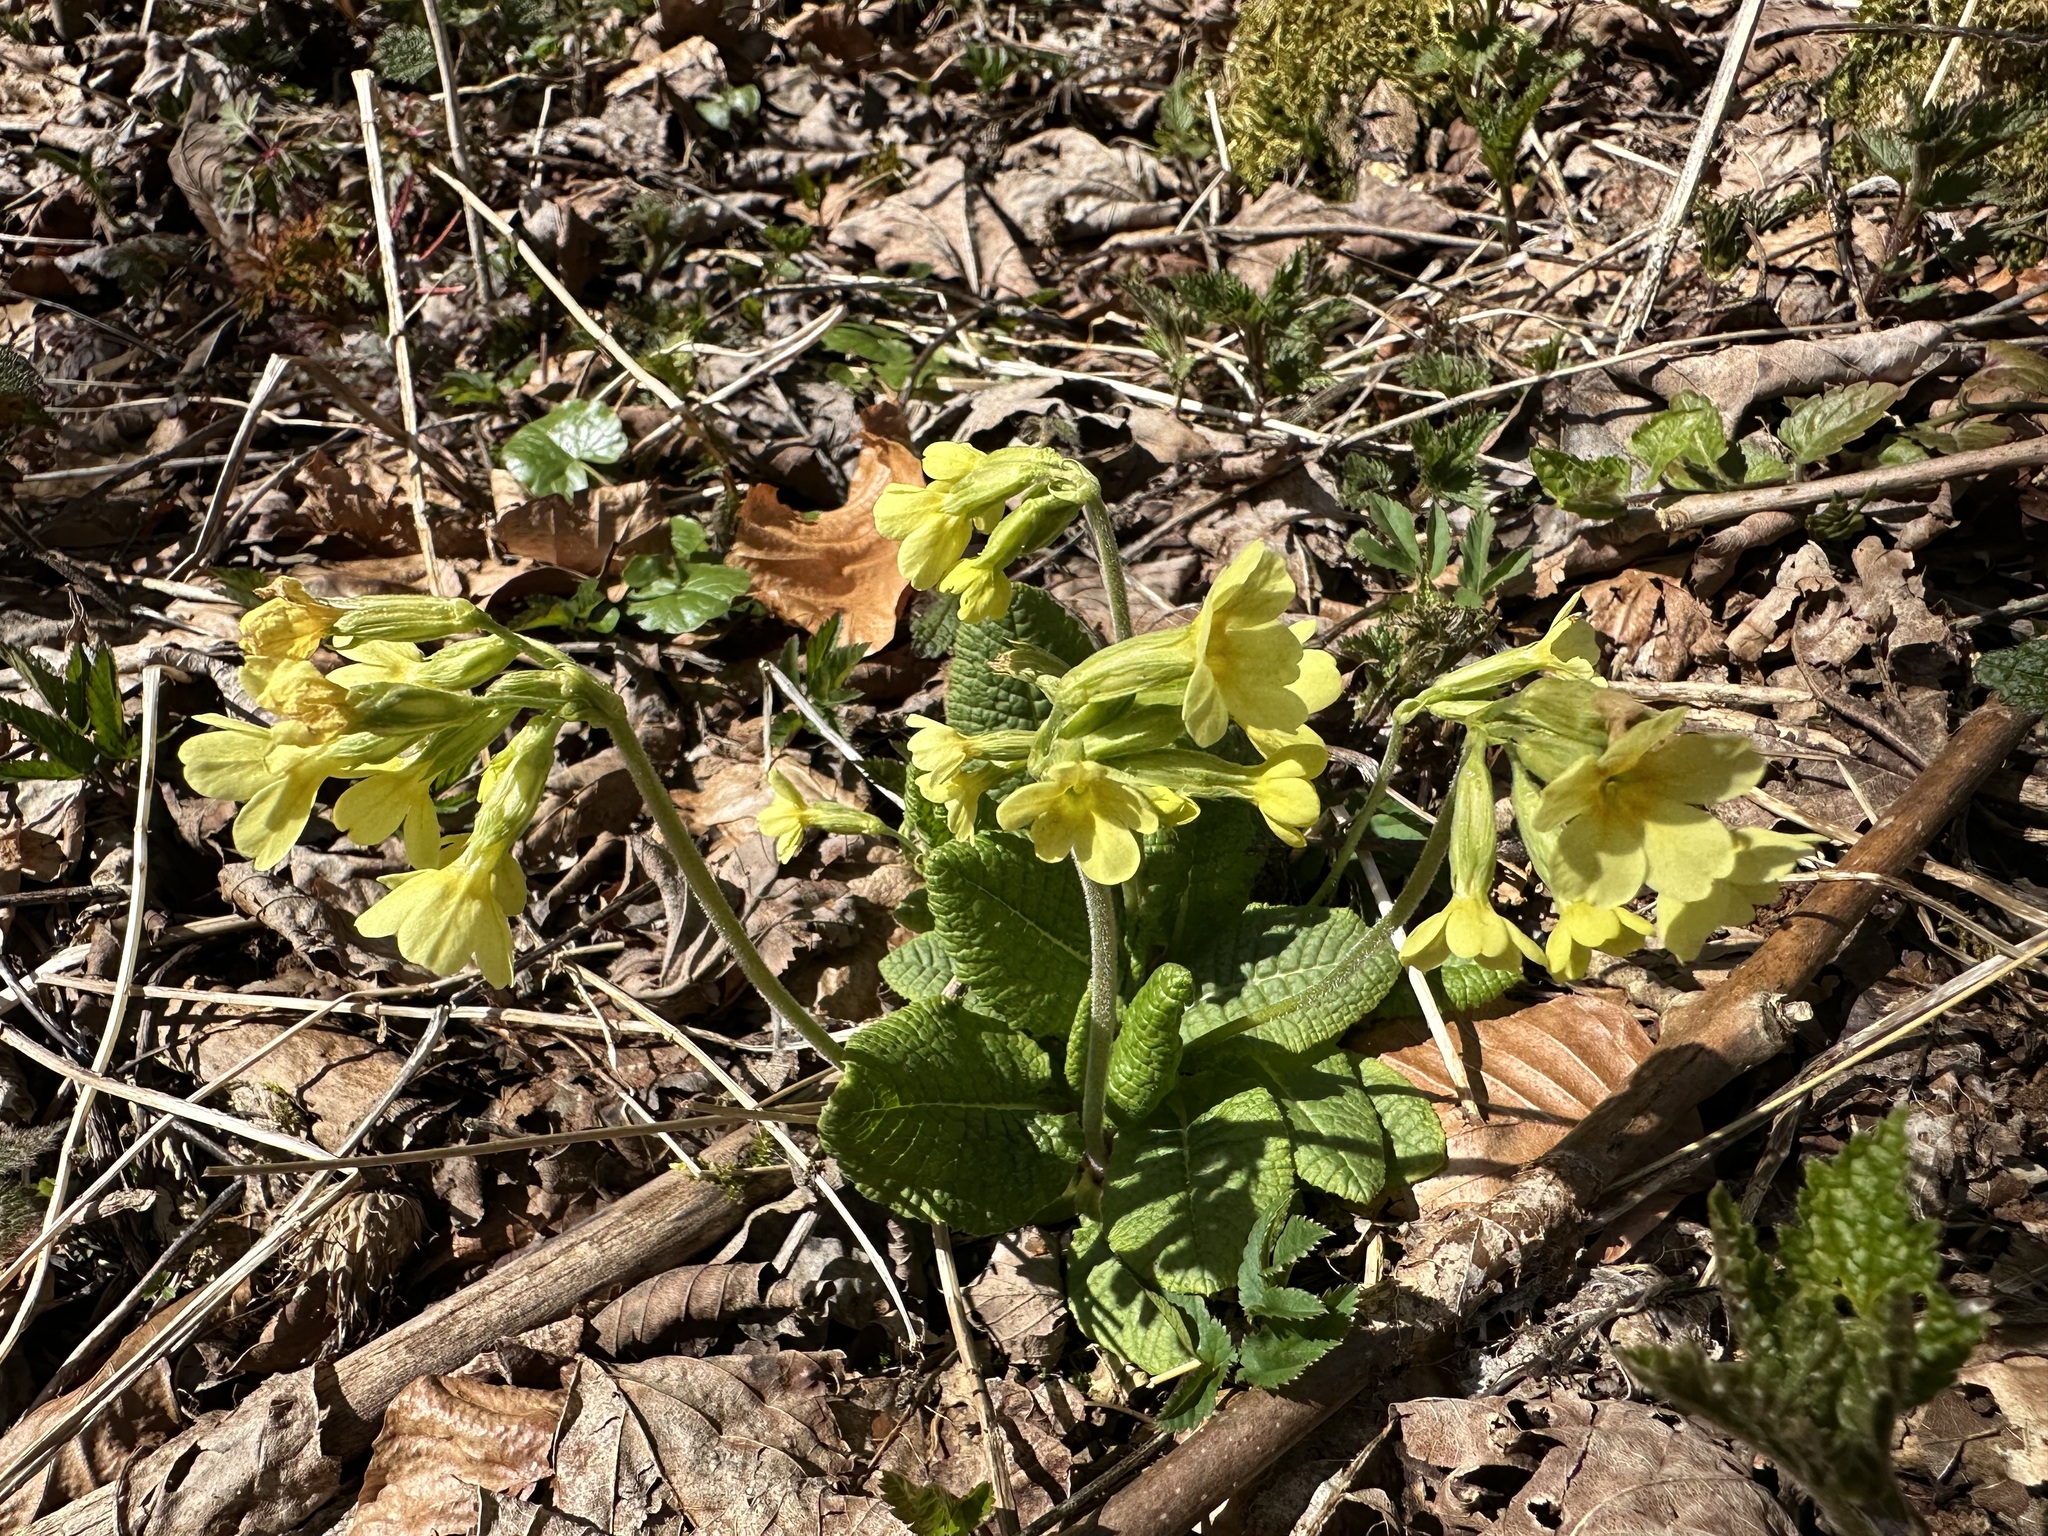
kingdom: Plantae
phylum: Tracheophyta
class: Magnoliopsida
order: Ericales
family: Primulaceae
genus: Primula
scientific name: Primula elatior
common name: Oxlip
